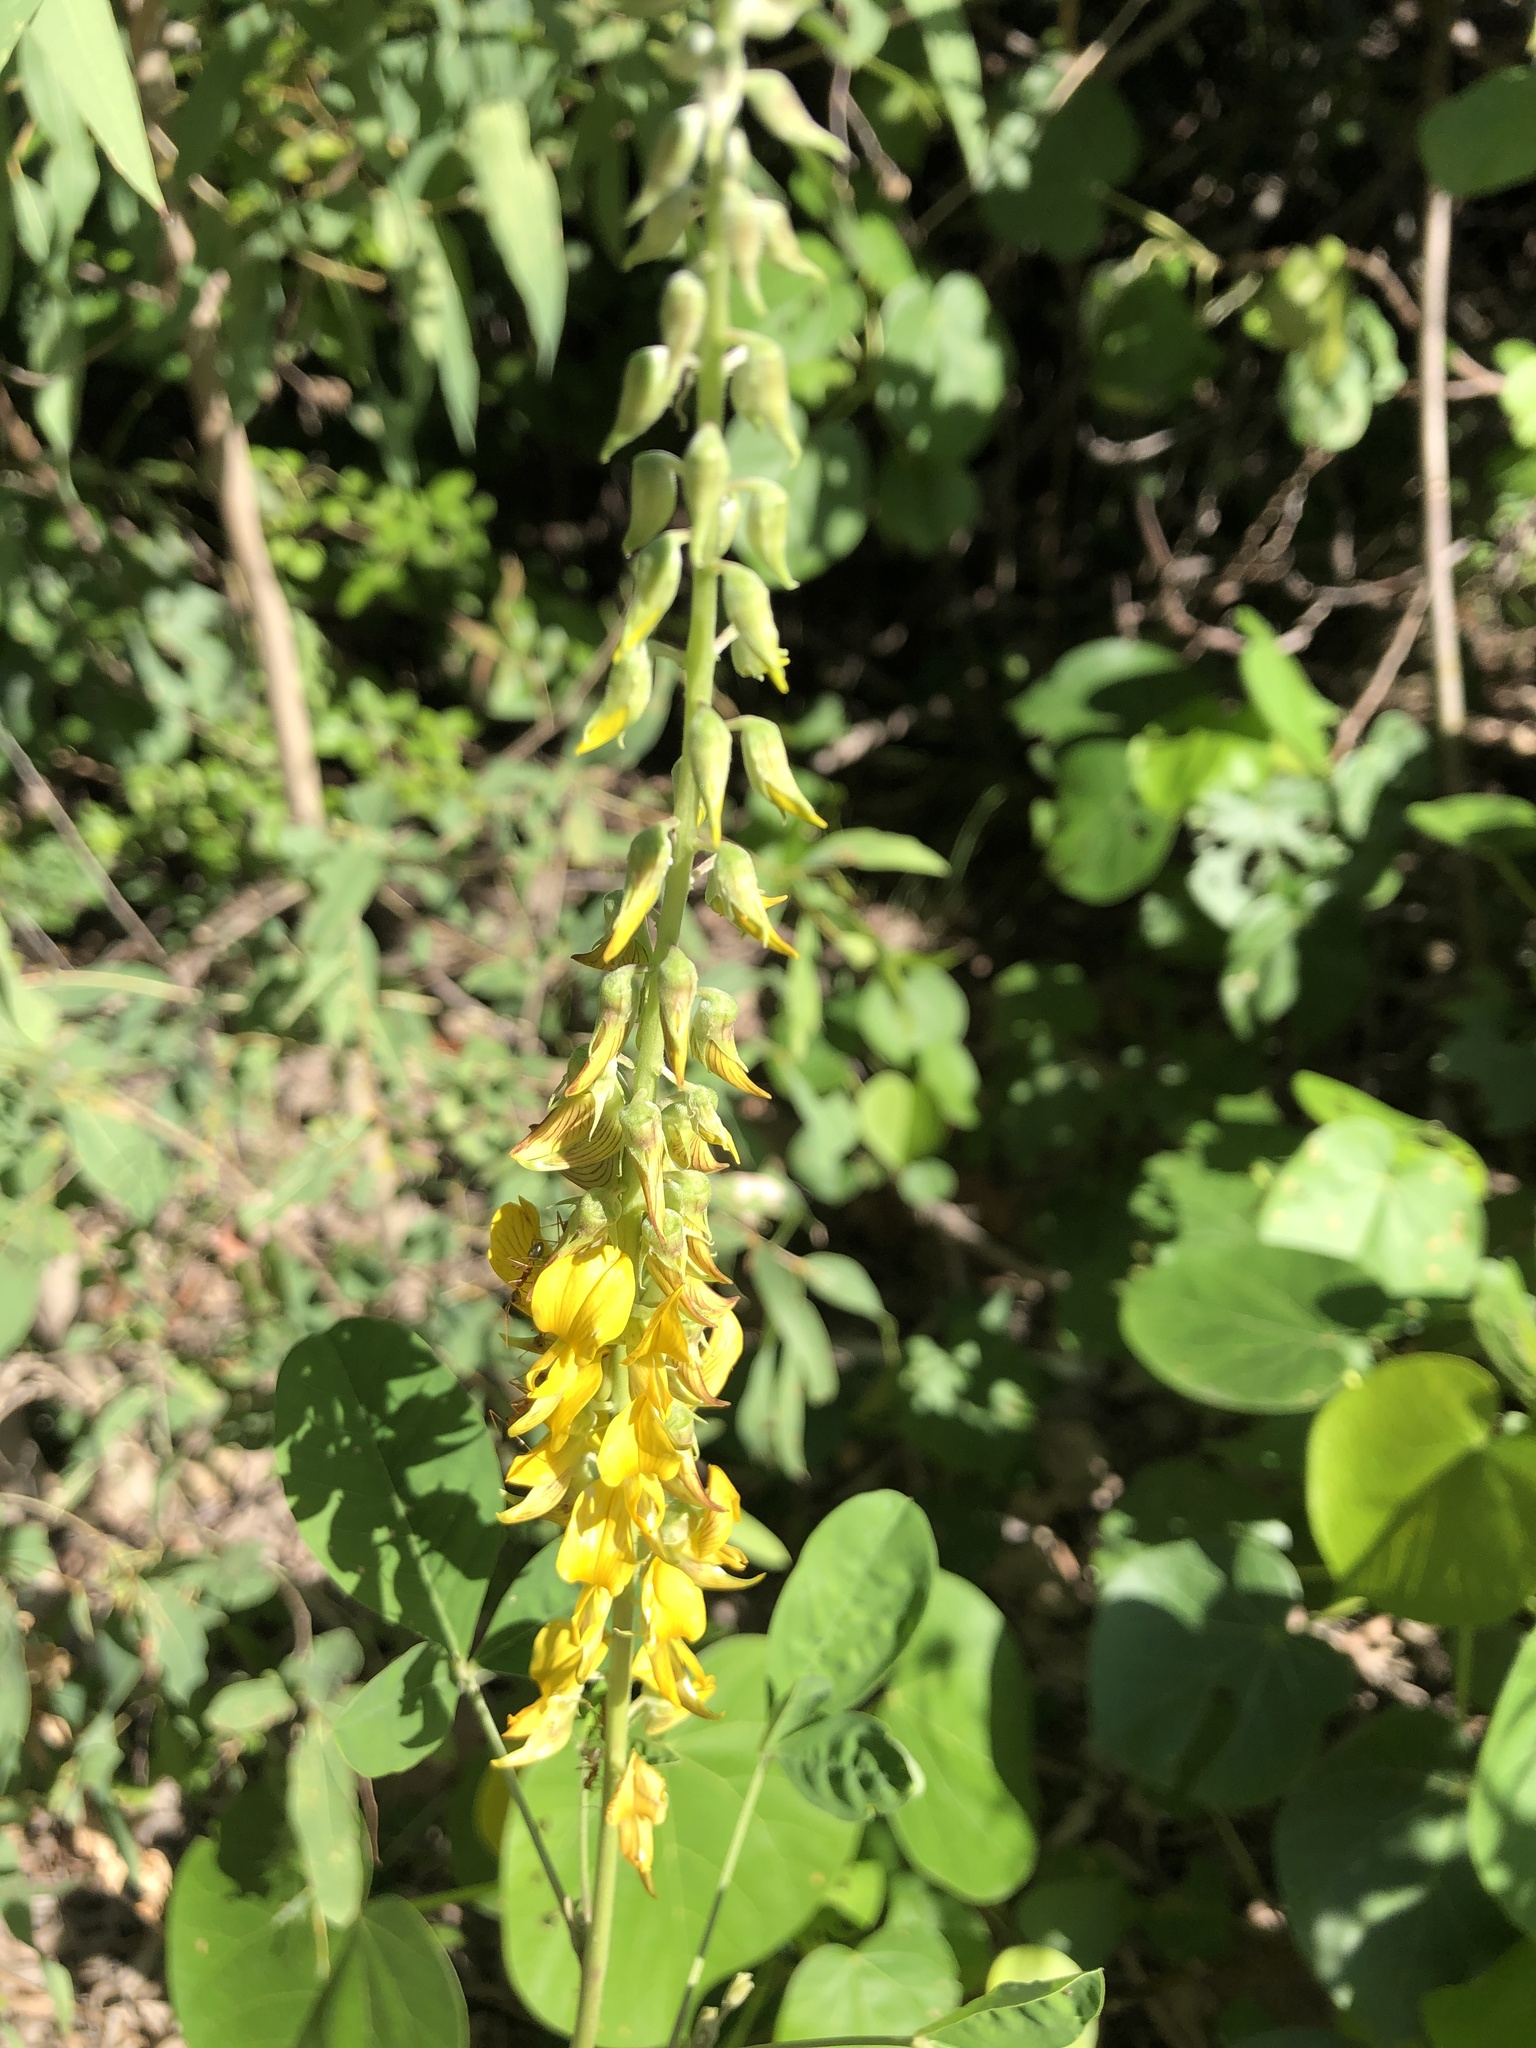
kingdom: Plantae
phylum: Tracheophyta
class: Magnoliopsida
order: Fabales
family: Fabaceae
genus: Crotalaria
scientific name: Crotalaria pallida
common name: Smooth rattlebox
